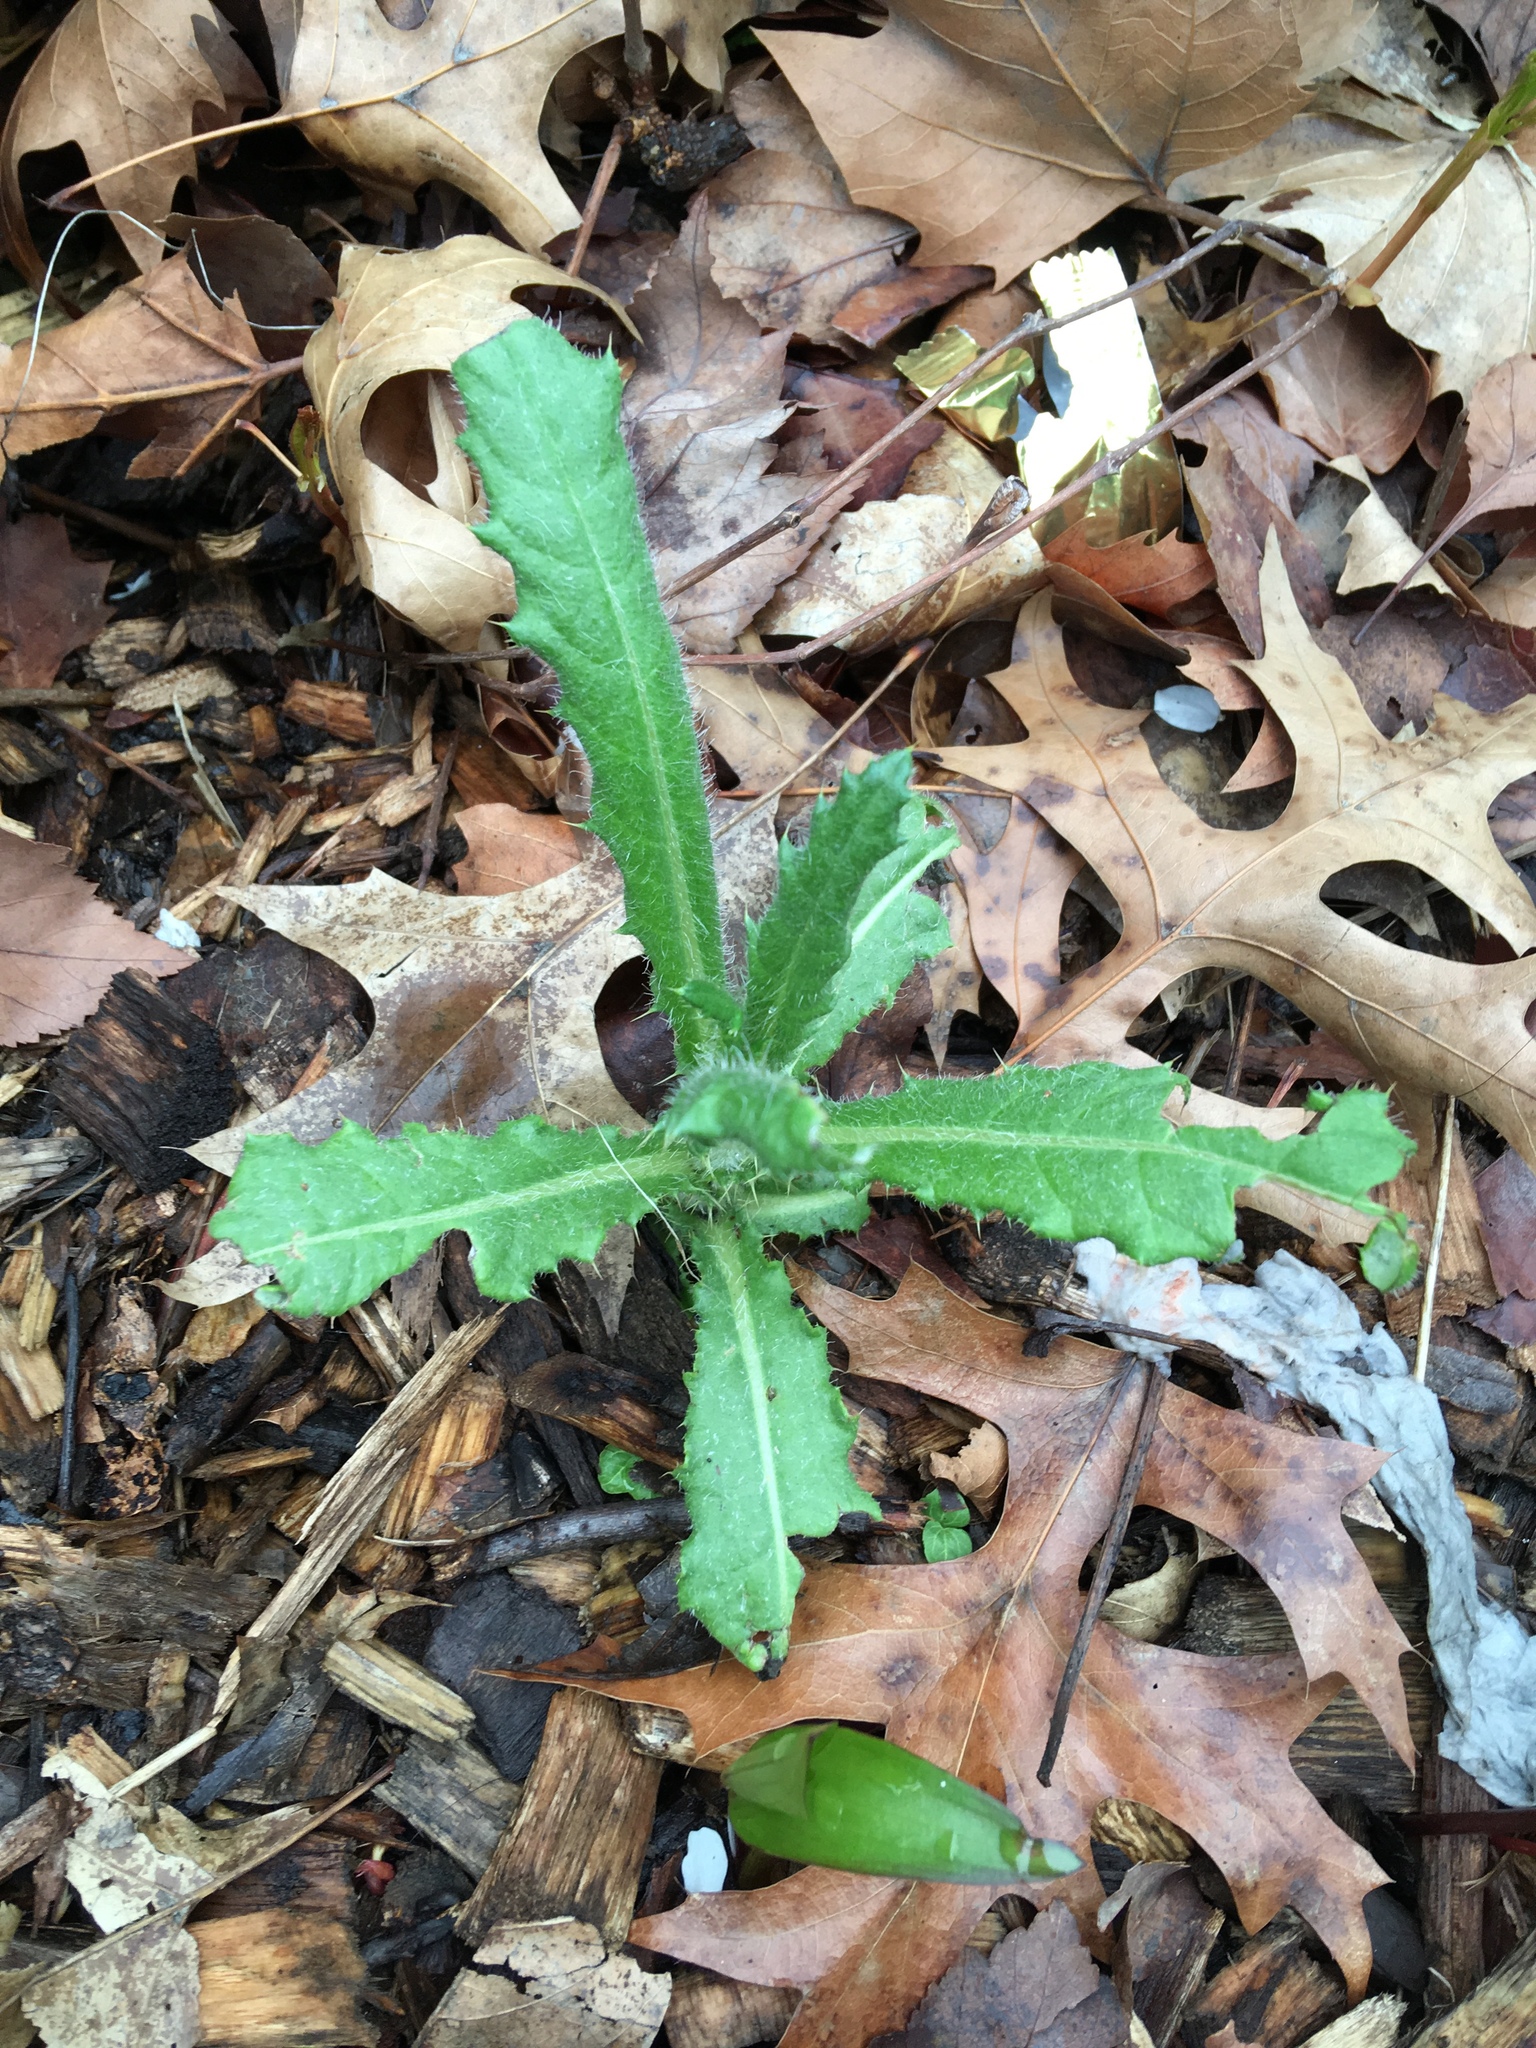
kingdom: Plantae
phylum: Tracheophyta
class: Magnoliopsida
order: Asterales
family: Asteraceae
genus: Cirsium
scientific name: Cirsium arvense
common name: Creeping thistle
